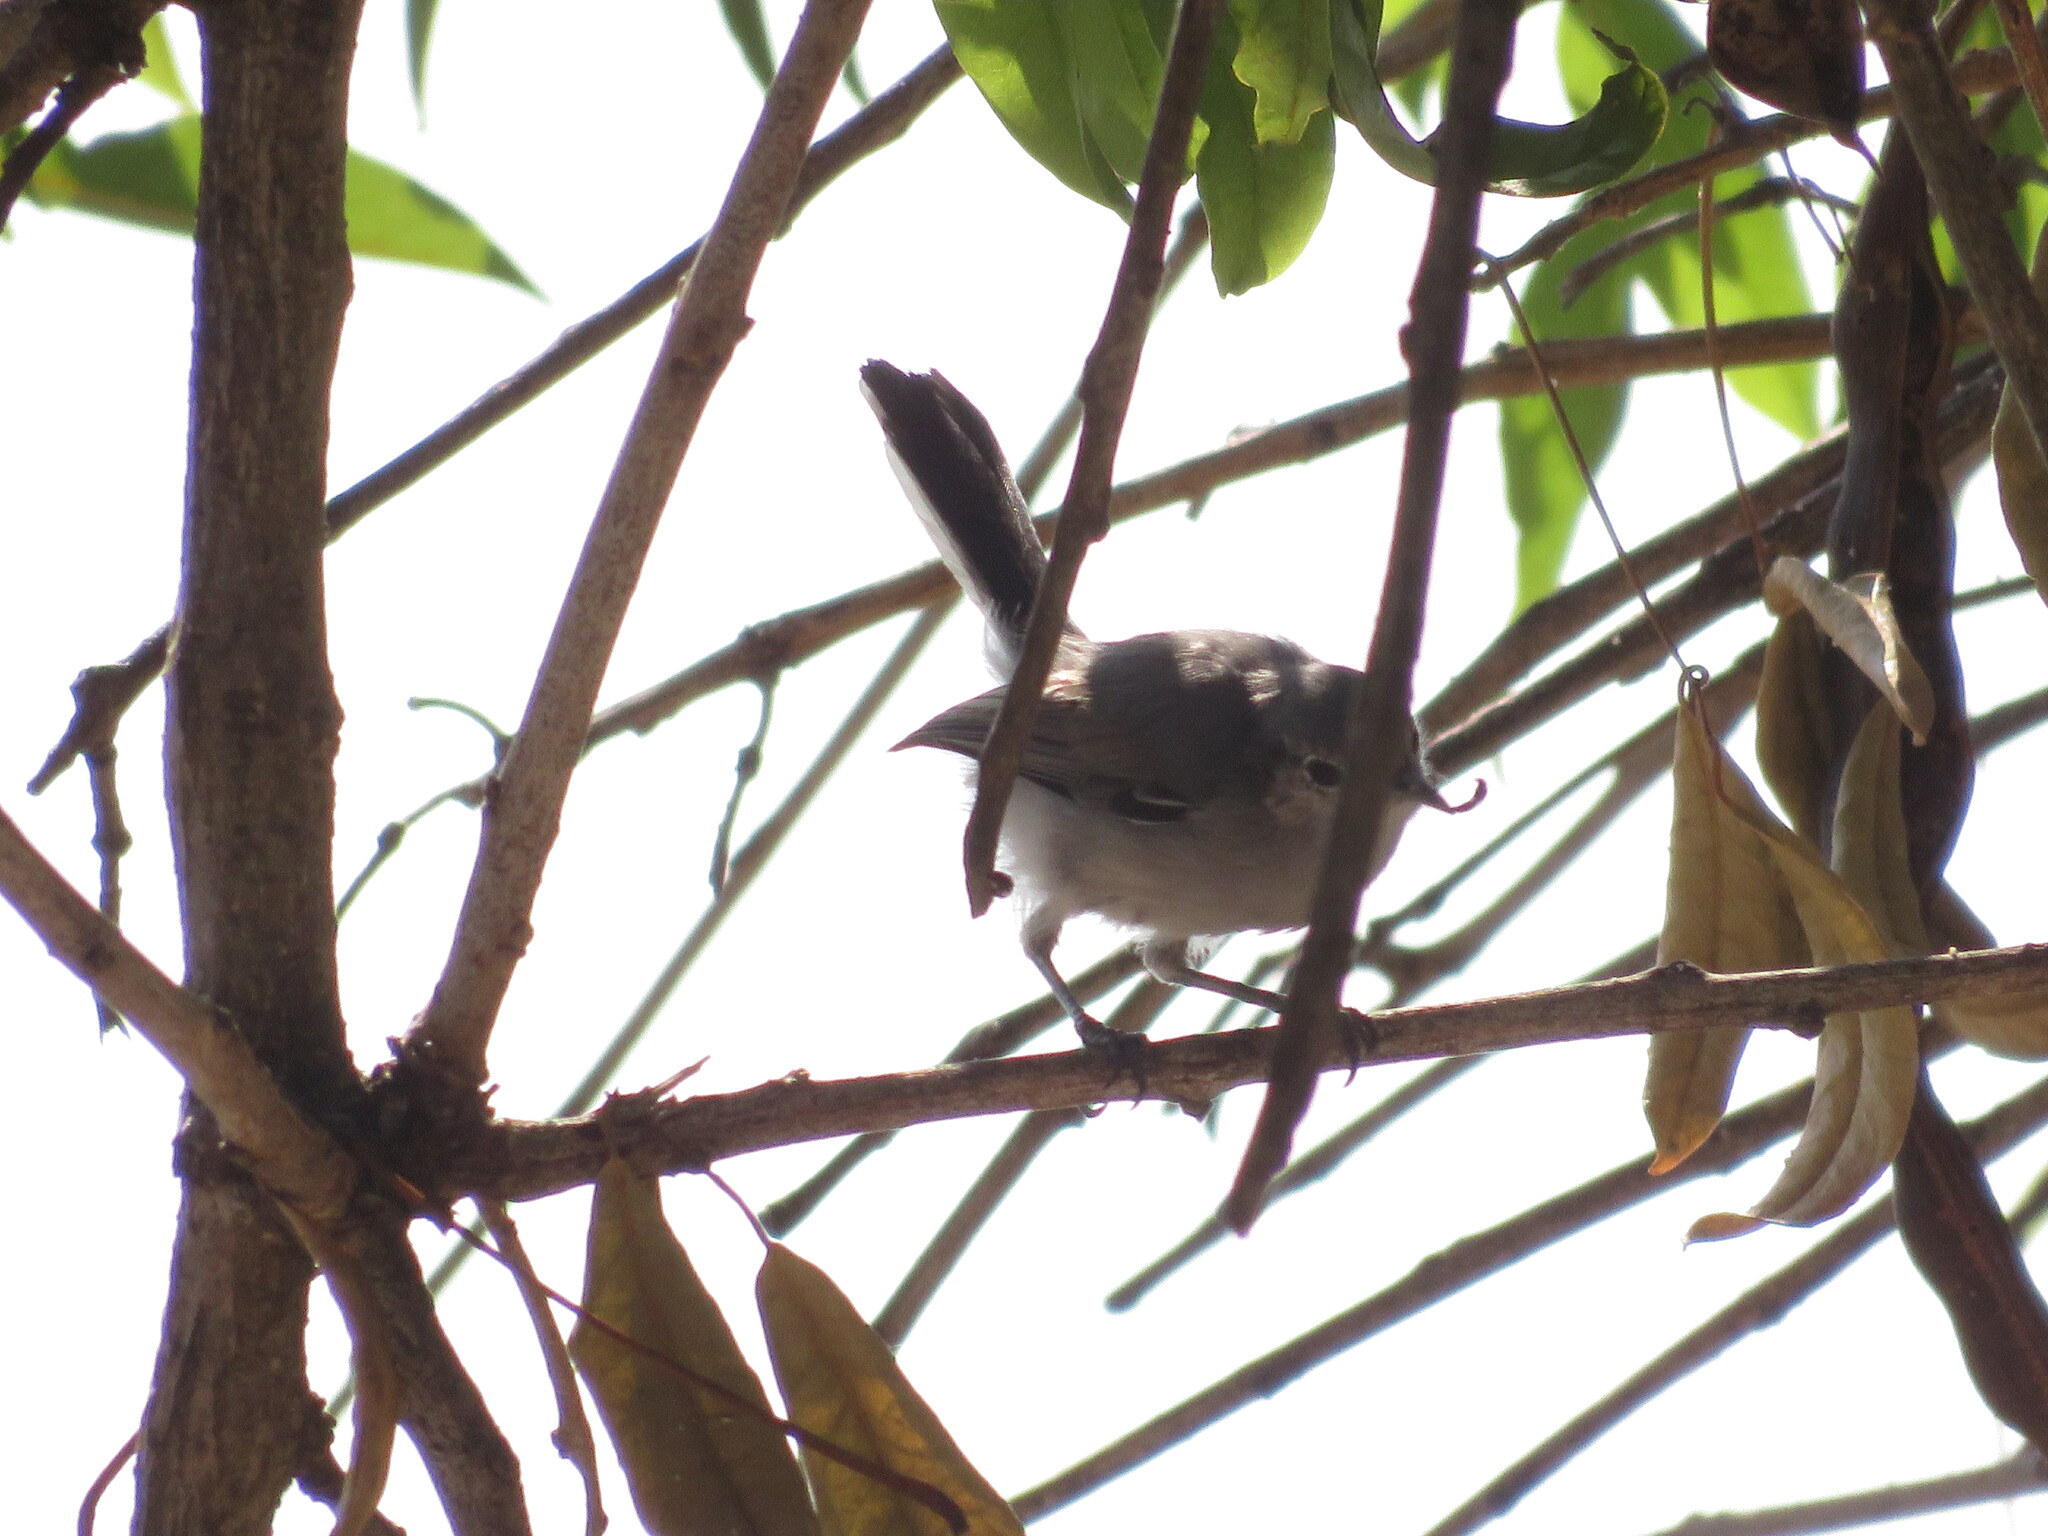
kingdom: Animalia
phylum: Chordata
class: Aves
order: Passeriformes
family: Polioptilidae
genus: Polioptila
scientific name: Polioptila dumicola
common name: Masked gnatcatcher
